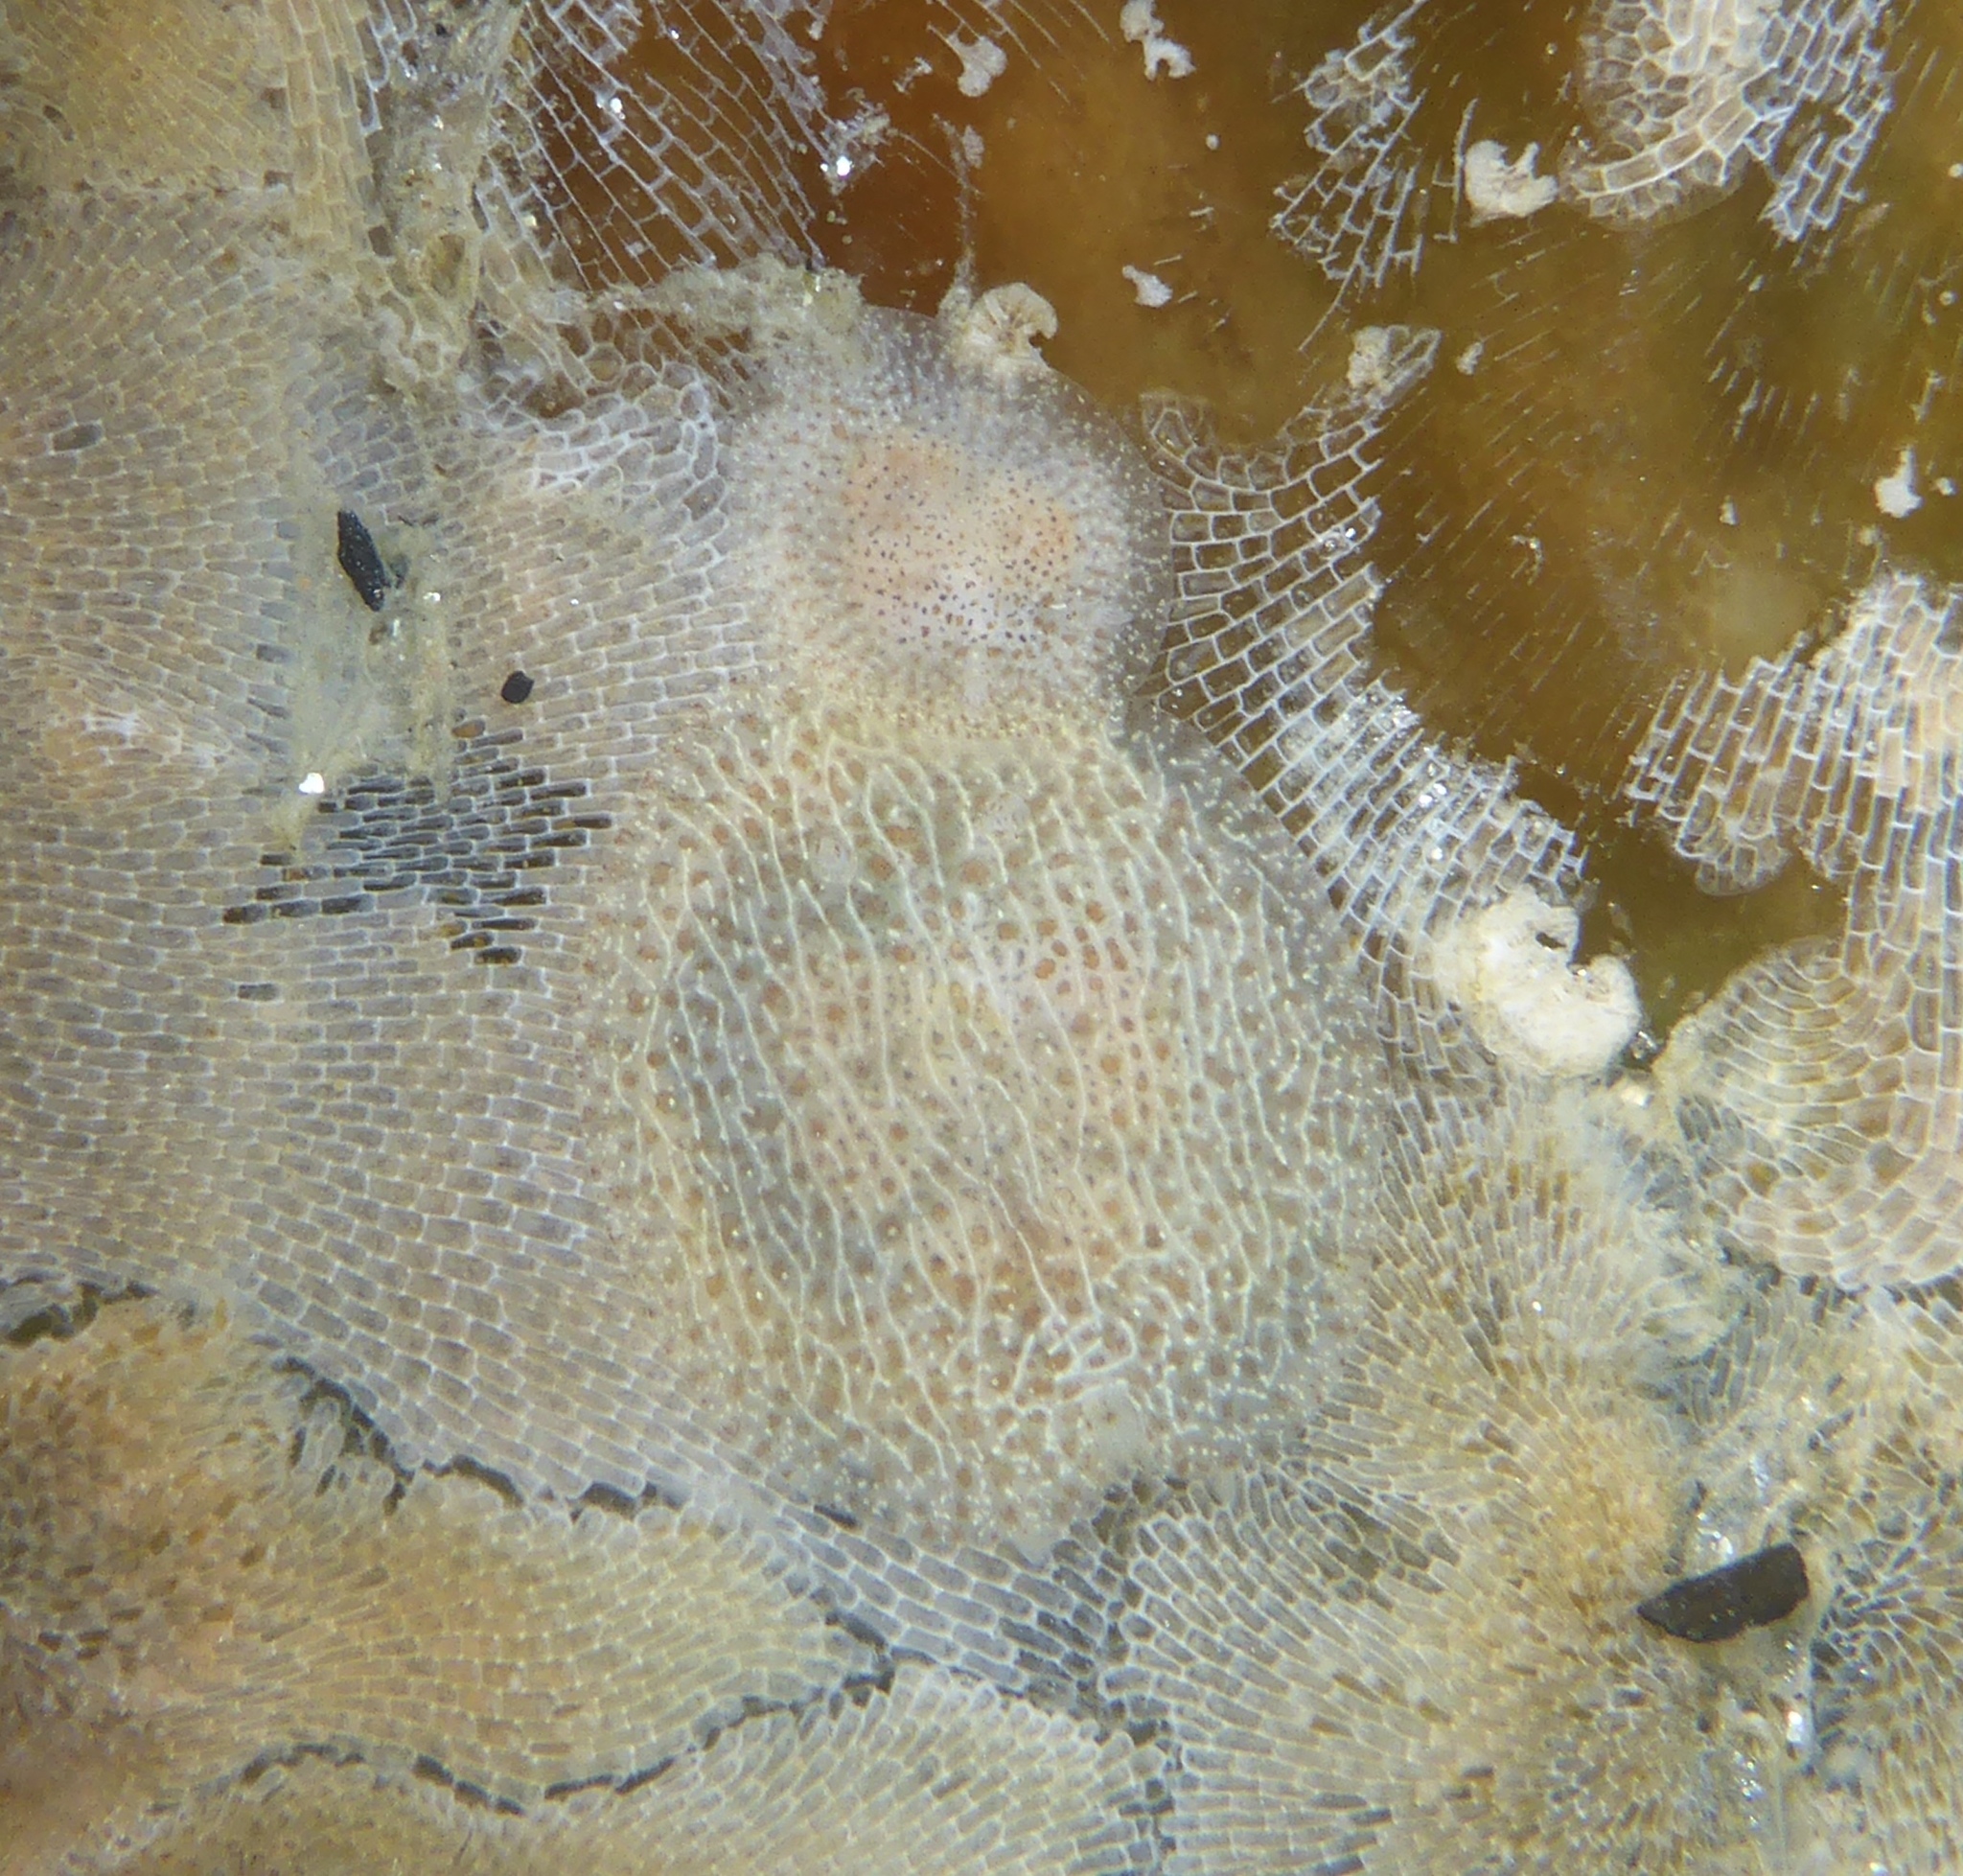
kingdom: Animalia
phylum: Mollusca
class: Gastropoda
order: Nudibranchia
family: Corambidae
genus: Corambe
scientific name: Corambe pacifica
